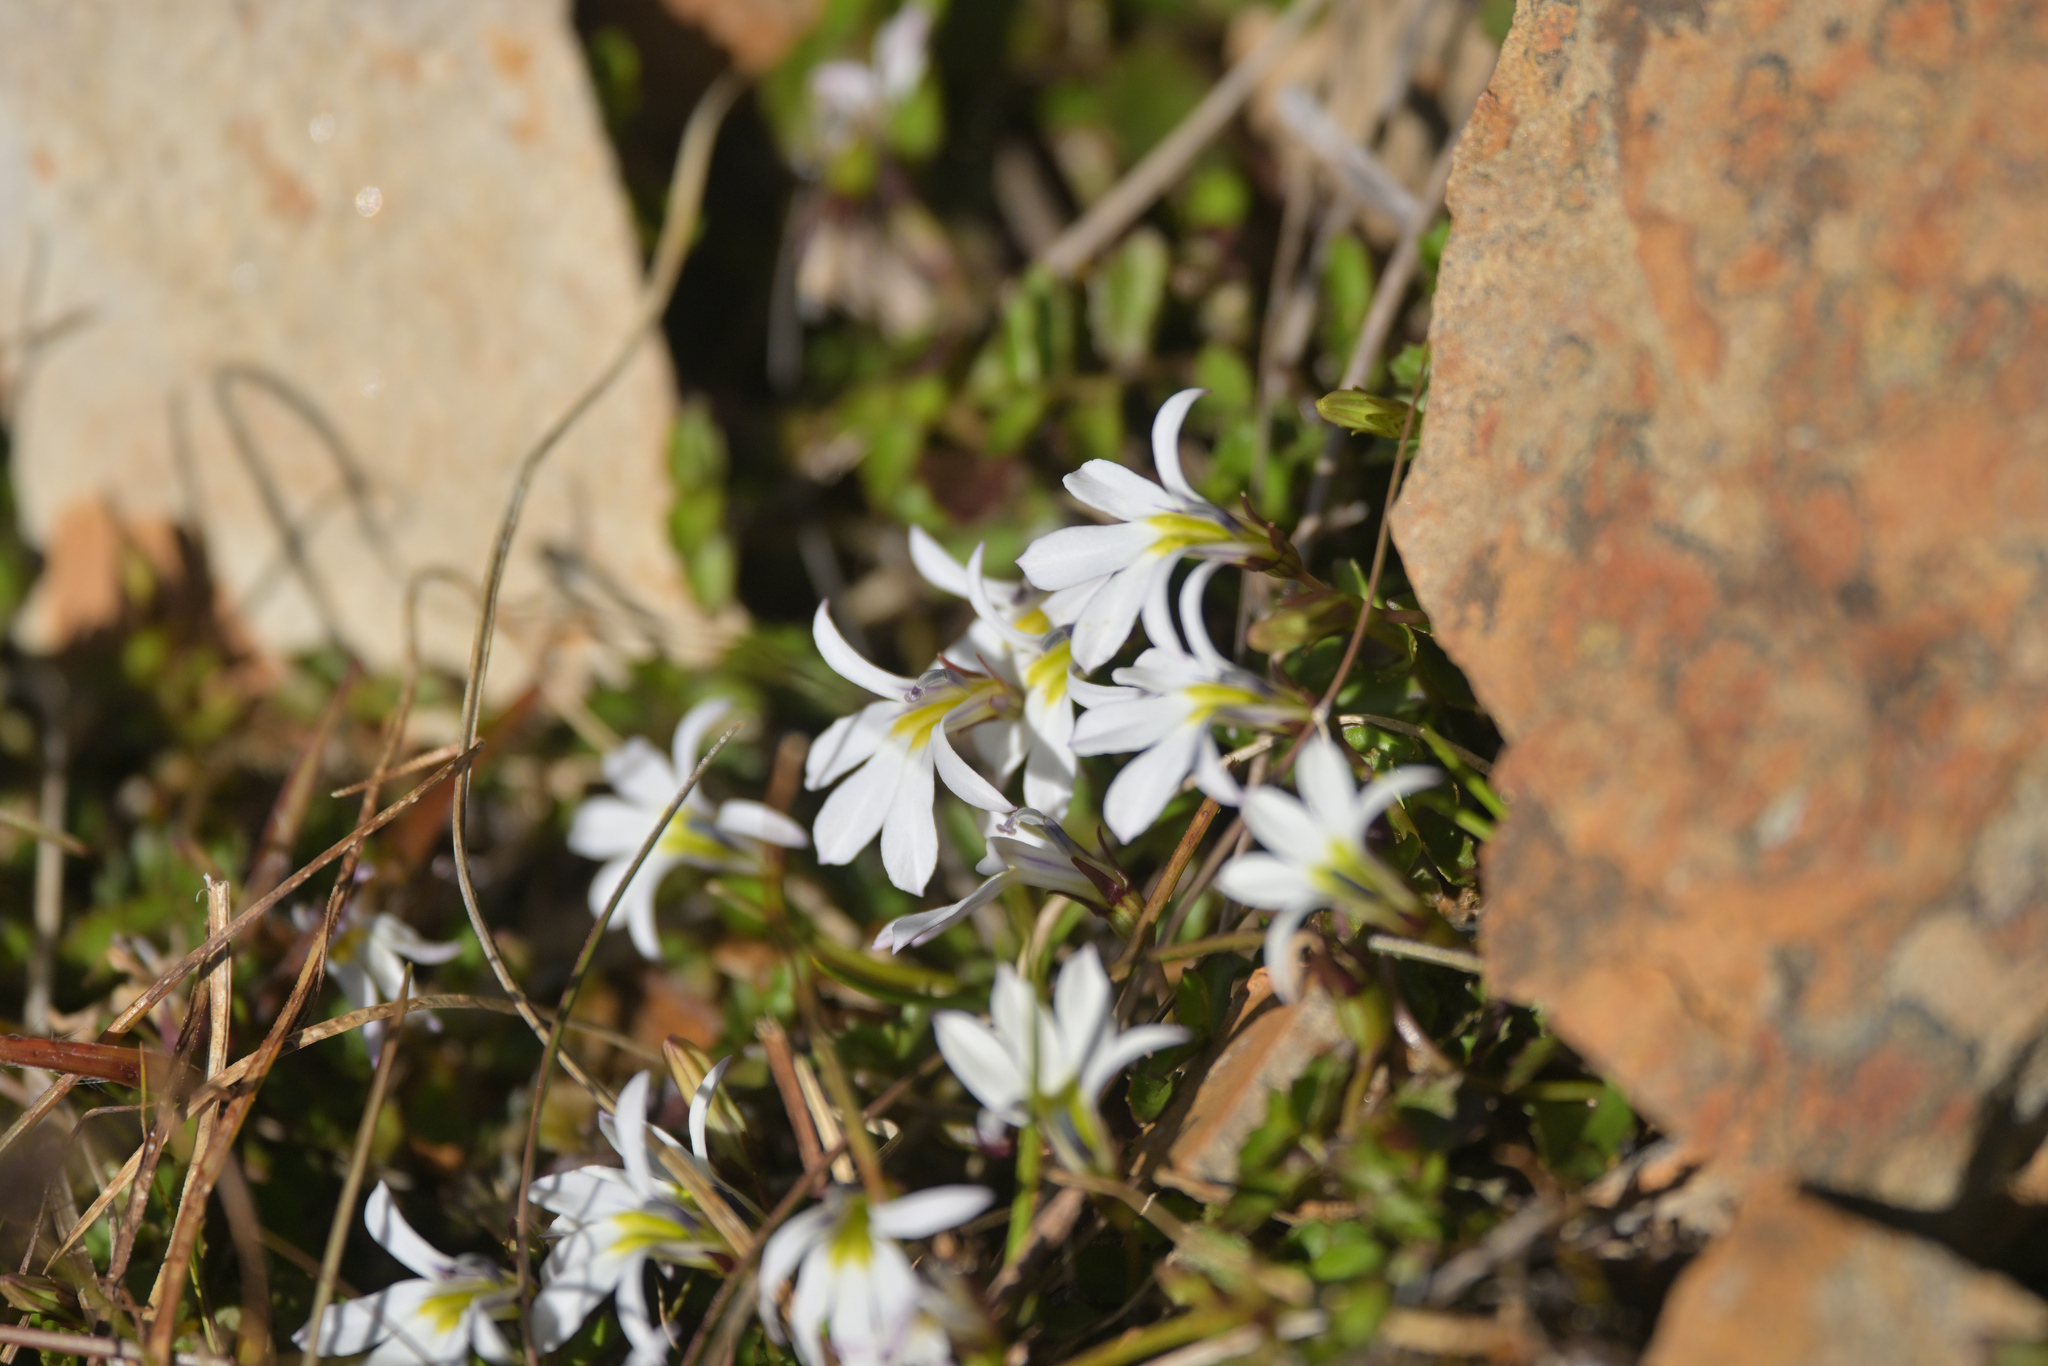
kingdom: Plantae
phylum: Tracheophyta
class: Magnoliopsida
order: Asterales
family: Campanulaceae
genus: Lobelia
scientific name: Lobelia angulata
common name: Lawn lobelia
